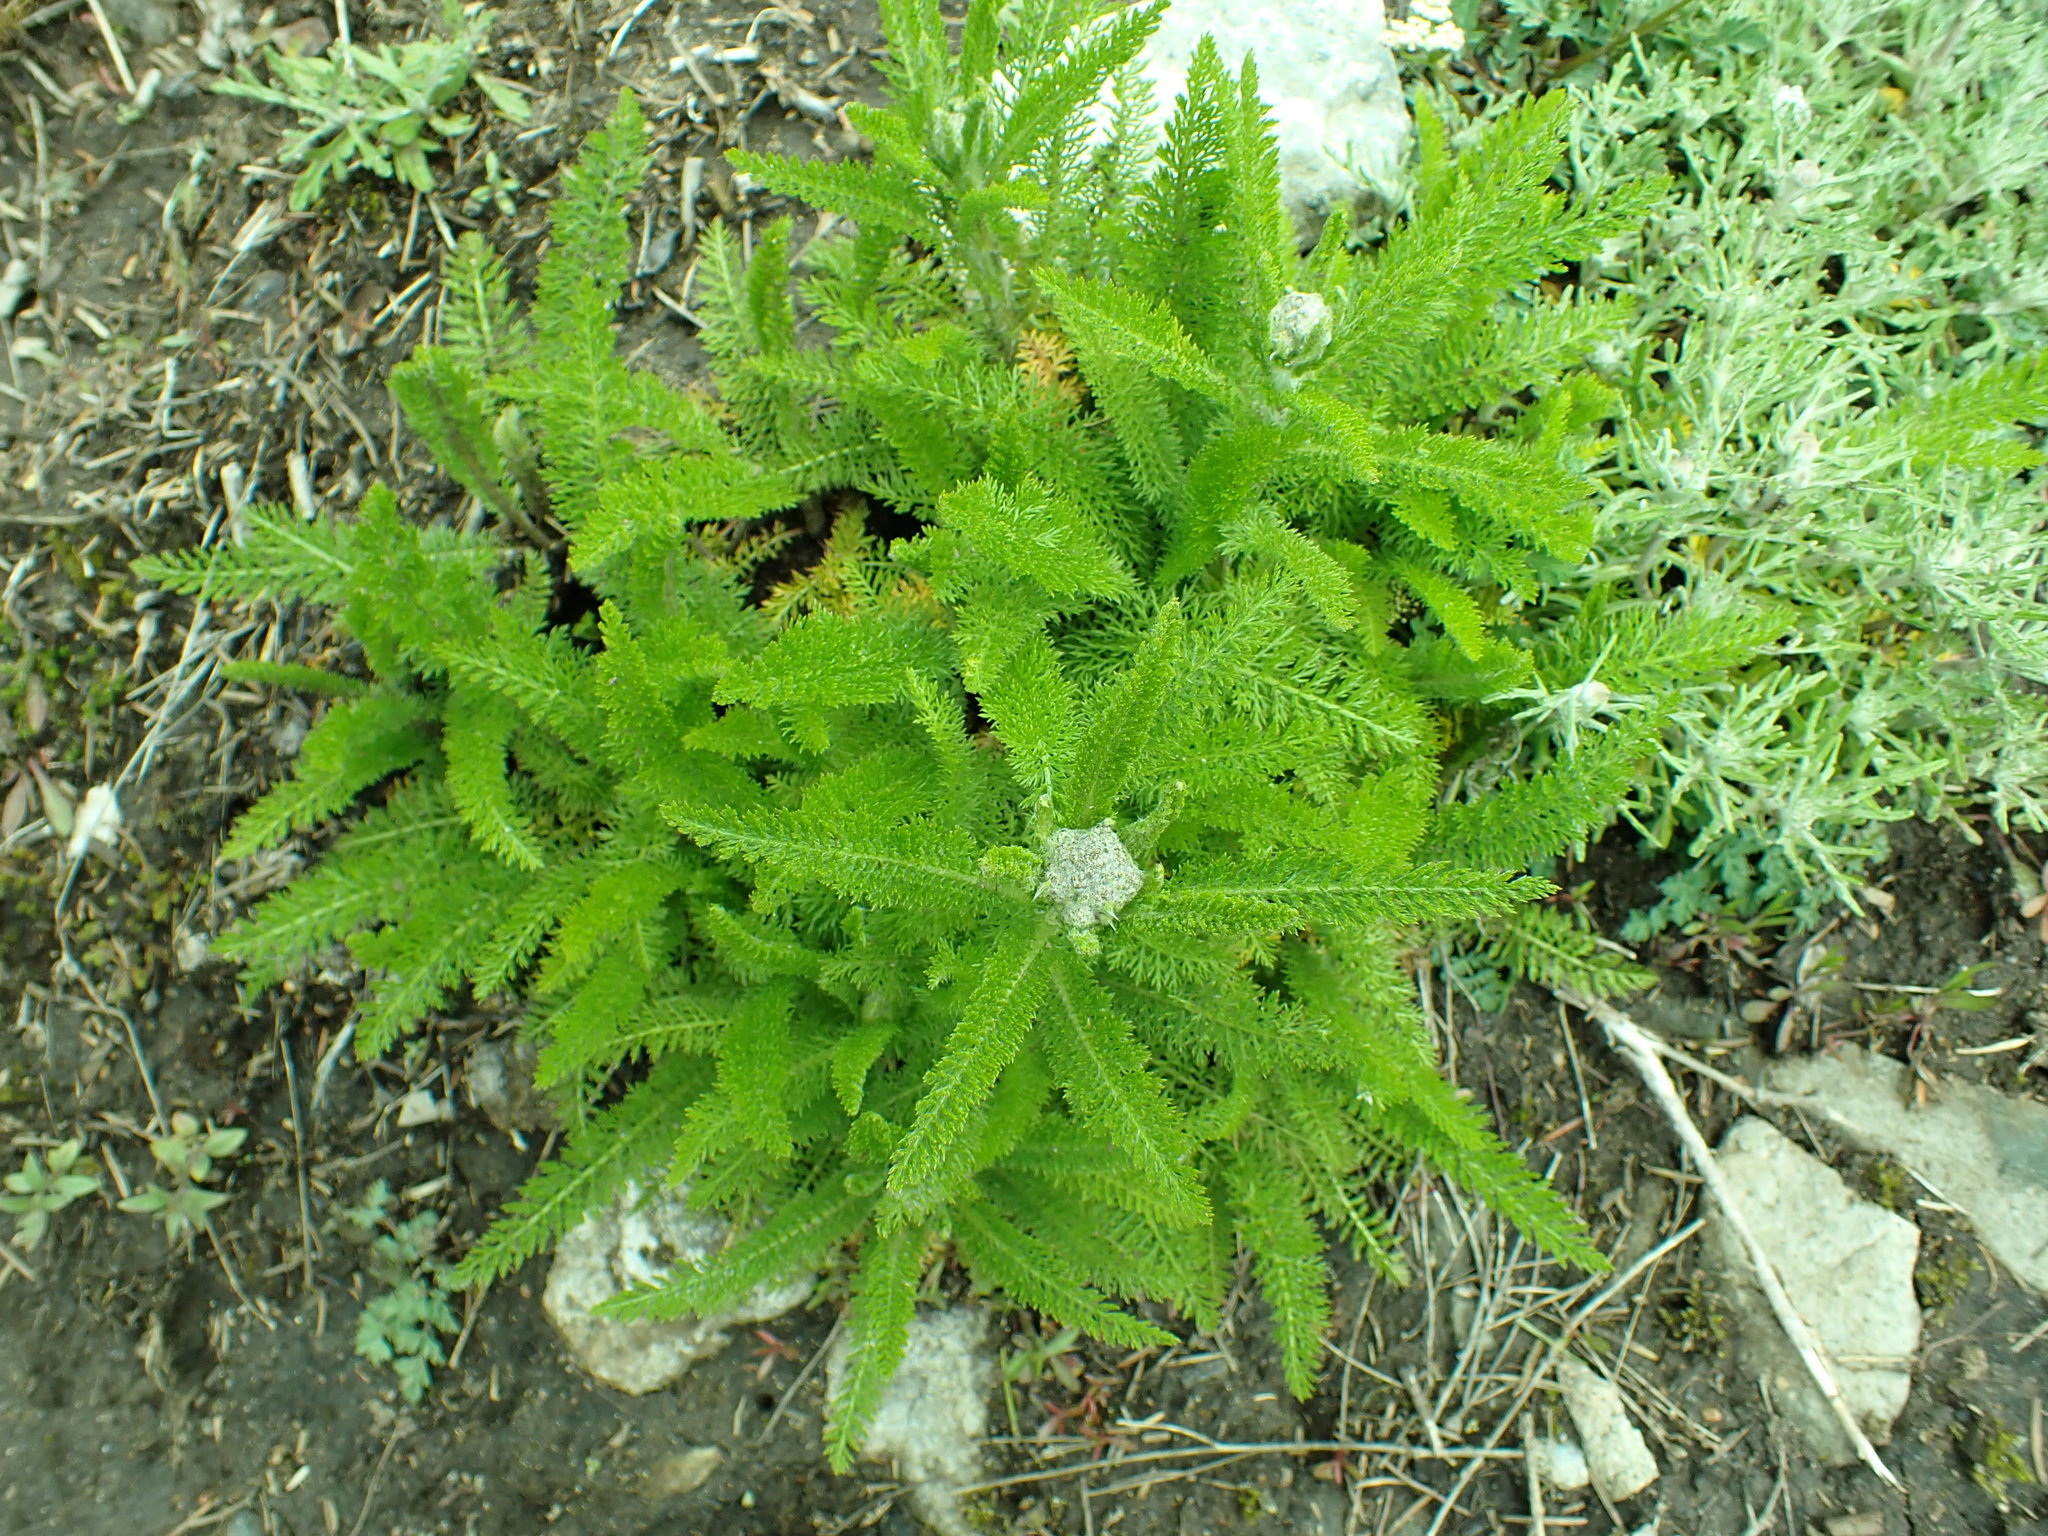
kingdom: Plantae
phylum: Tracheophyta
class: Magnoliopsida
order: Asterales
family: Asteraceae
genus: Achillea
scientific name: Achillea millefolium
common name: Yarrow
